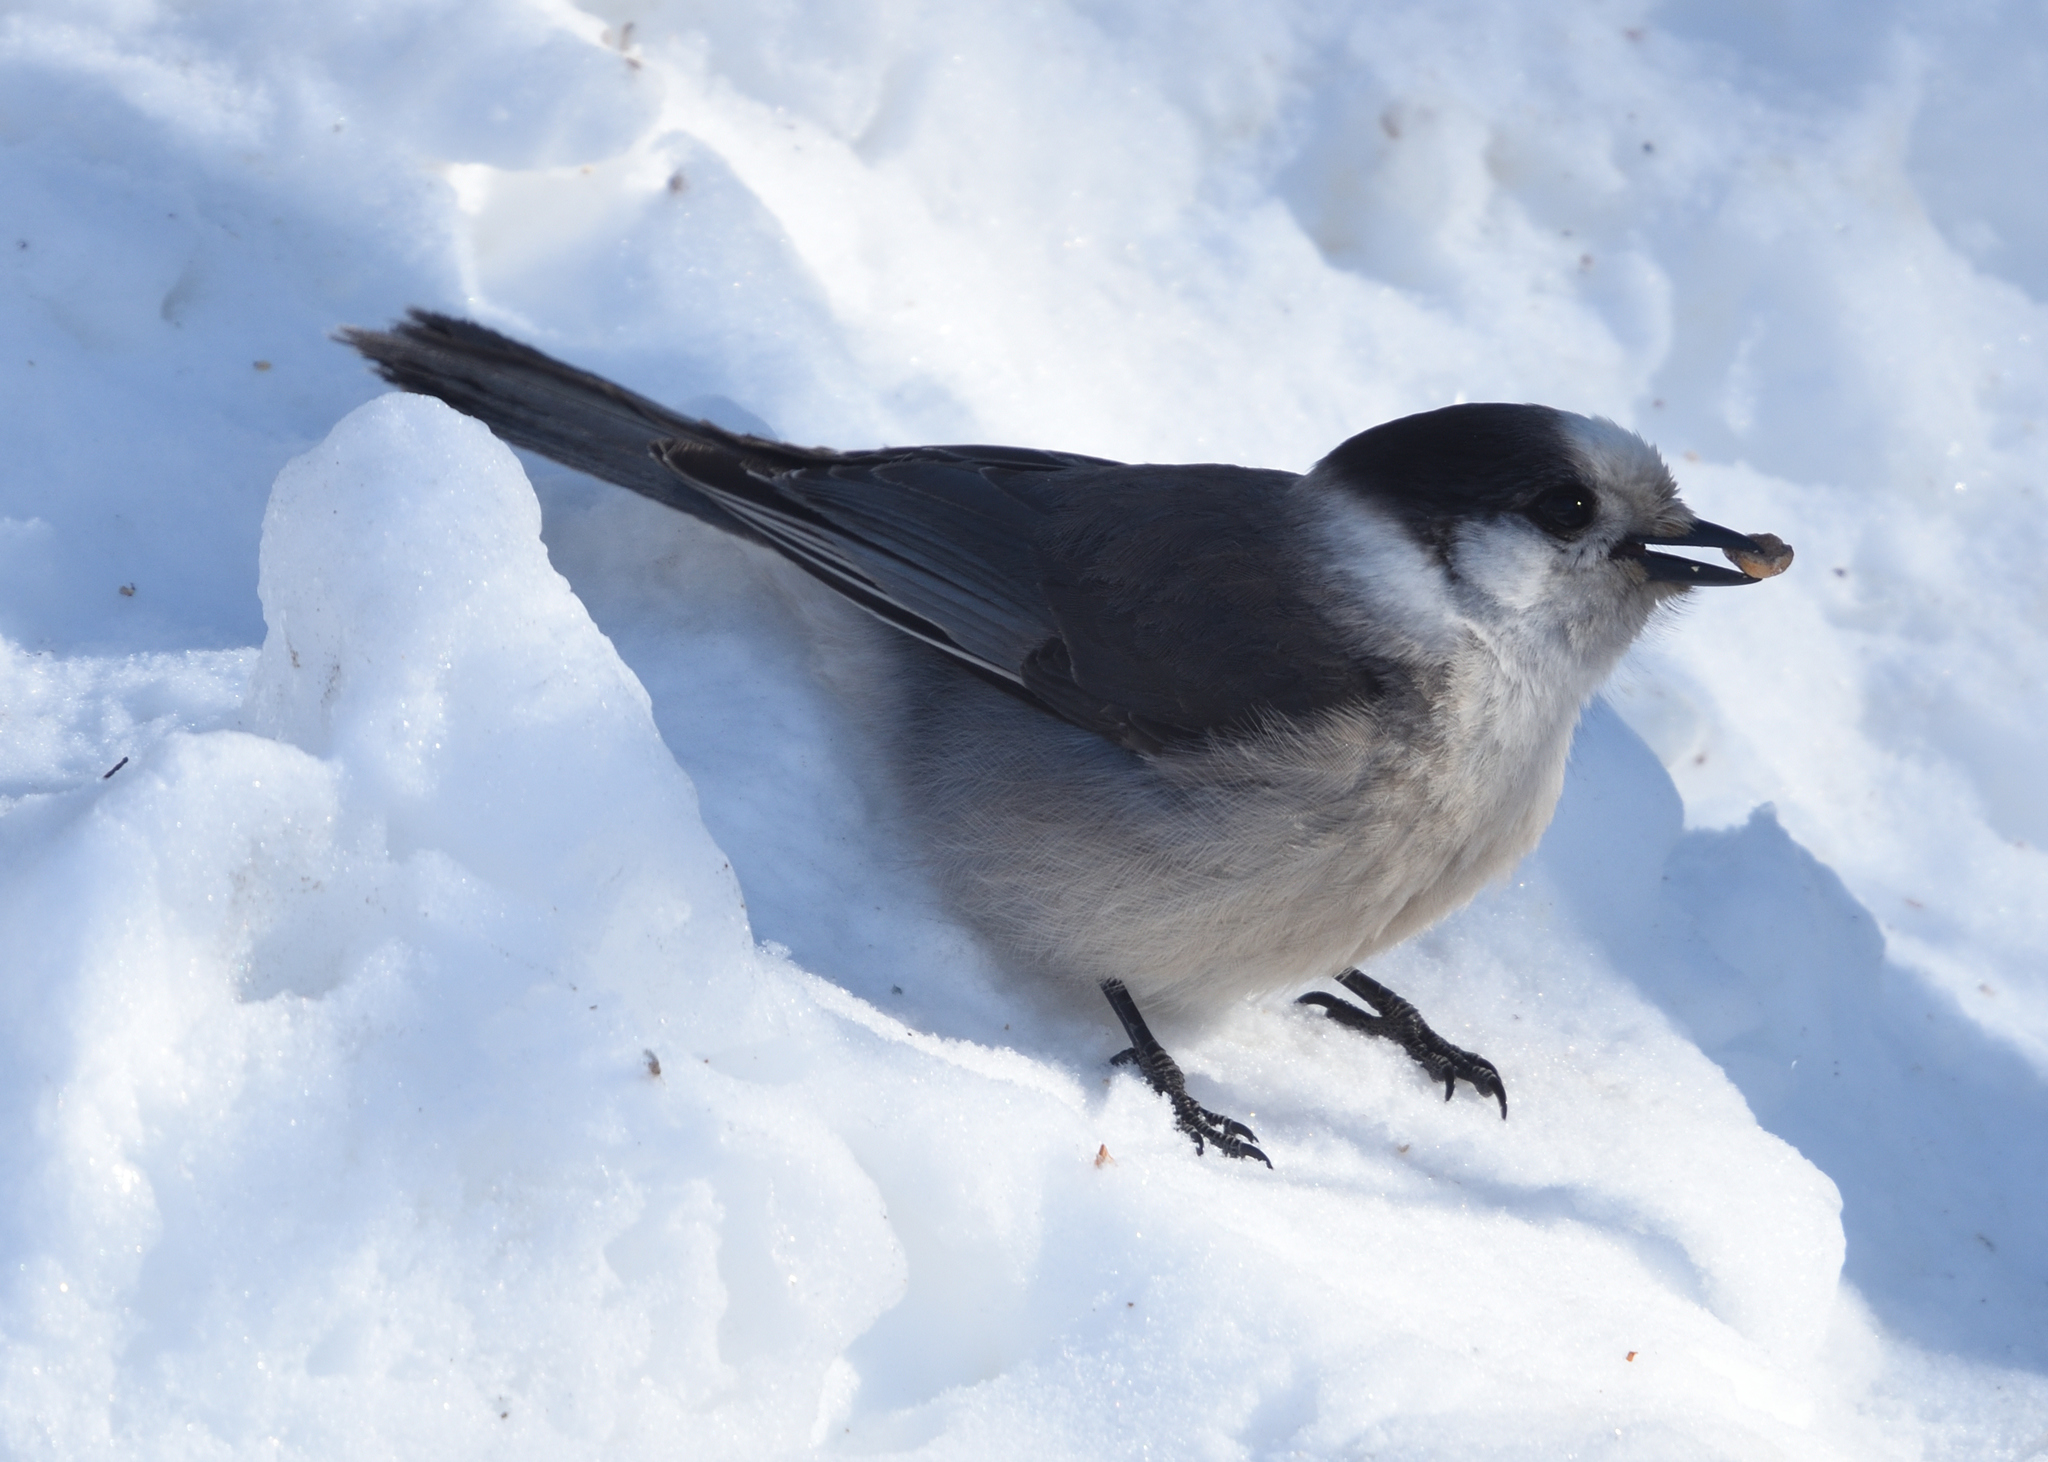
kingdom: Animalia
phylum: Chordata
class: Aves
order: Passeriformes
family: Corvidae
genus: Perisoreus
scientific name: Perisoreus canadensis
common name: Gray jay
